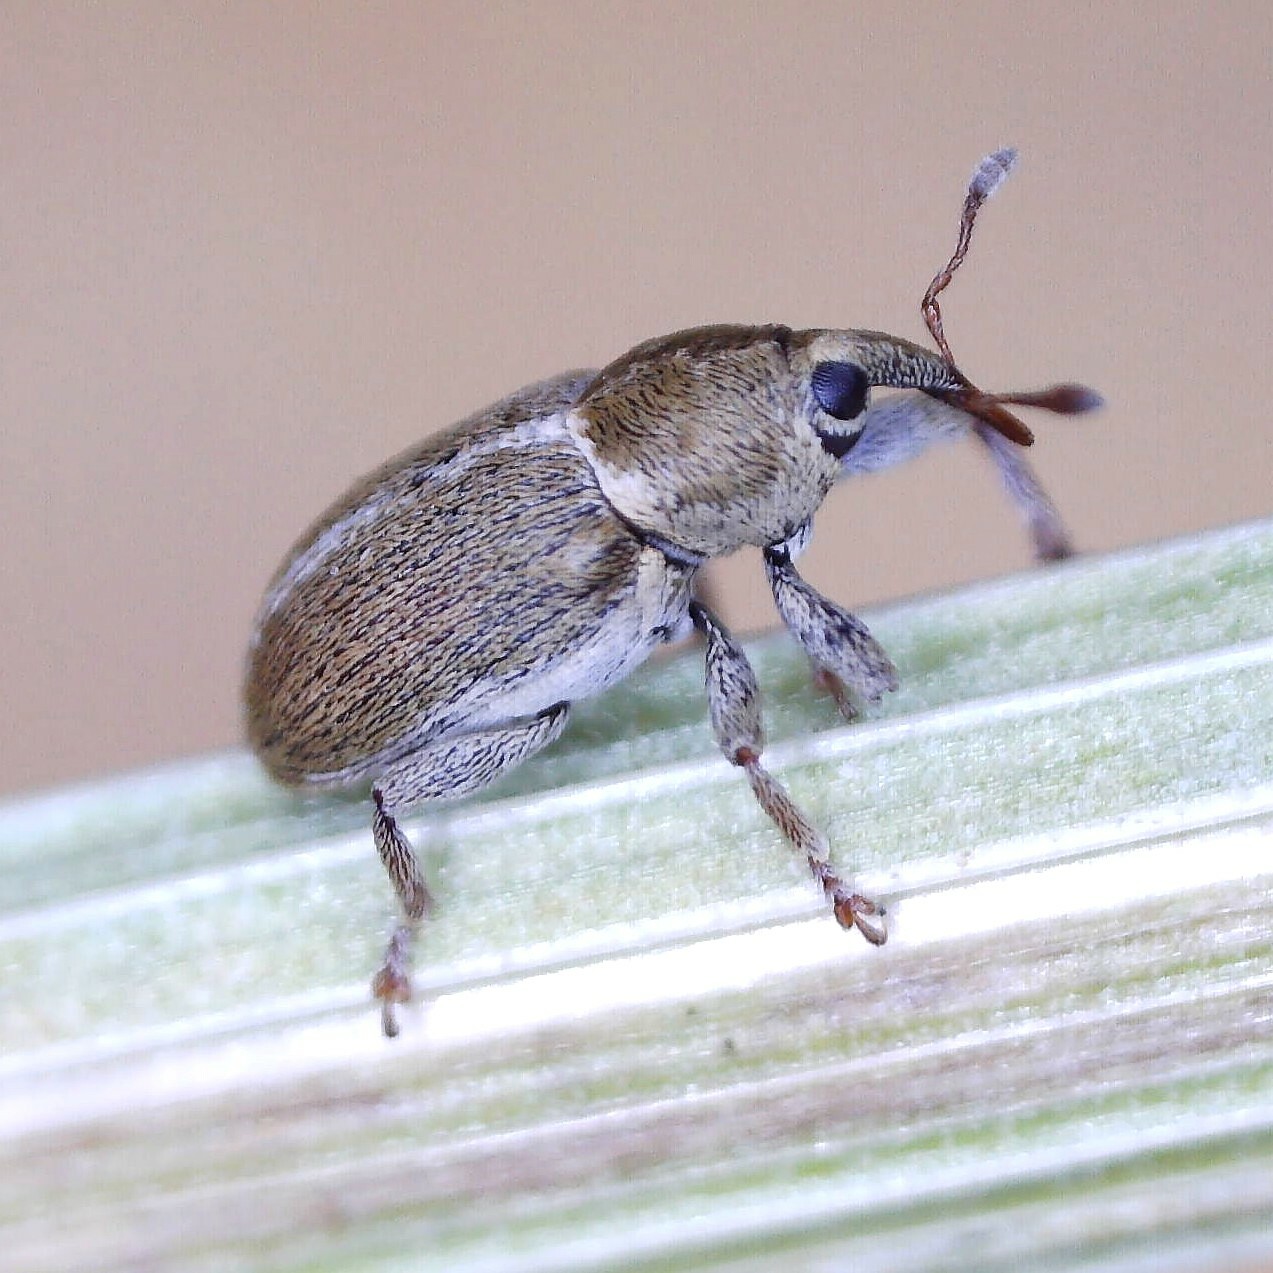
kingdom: Animalia
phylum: Arthropoda
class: Insecta
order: Coleoptera
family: Curculionidae
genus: Tychius
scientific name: Tychius meliloti
